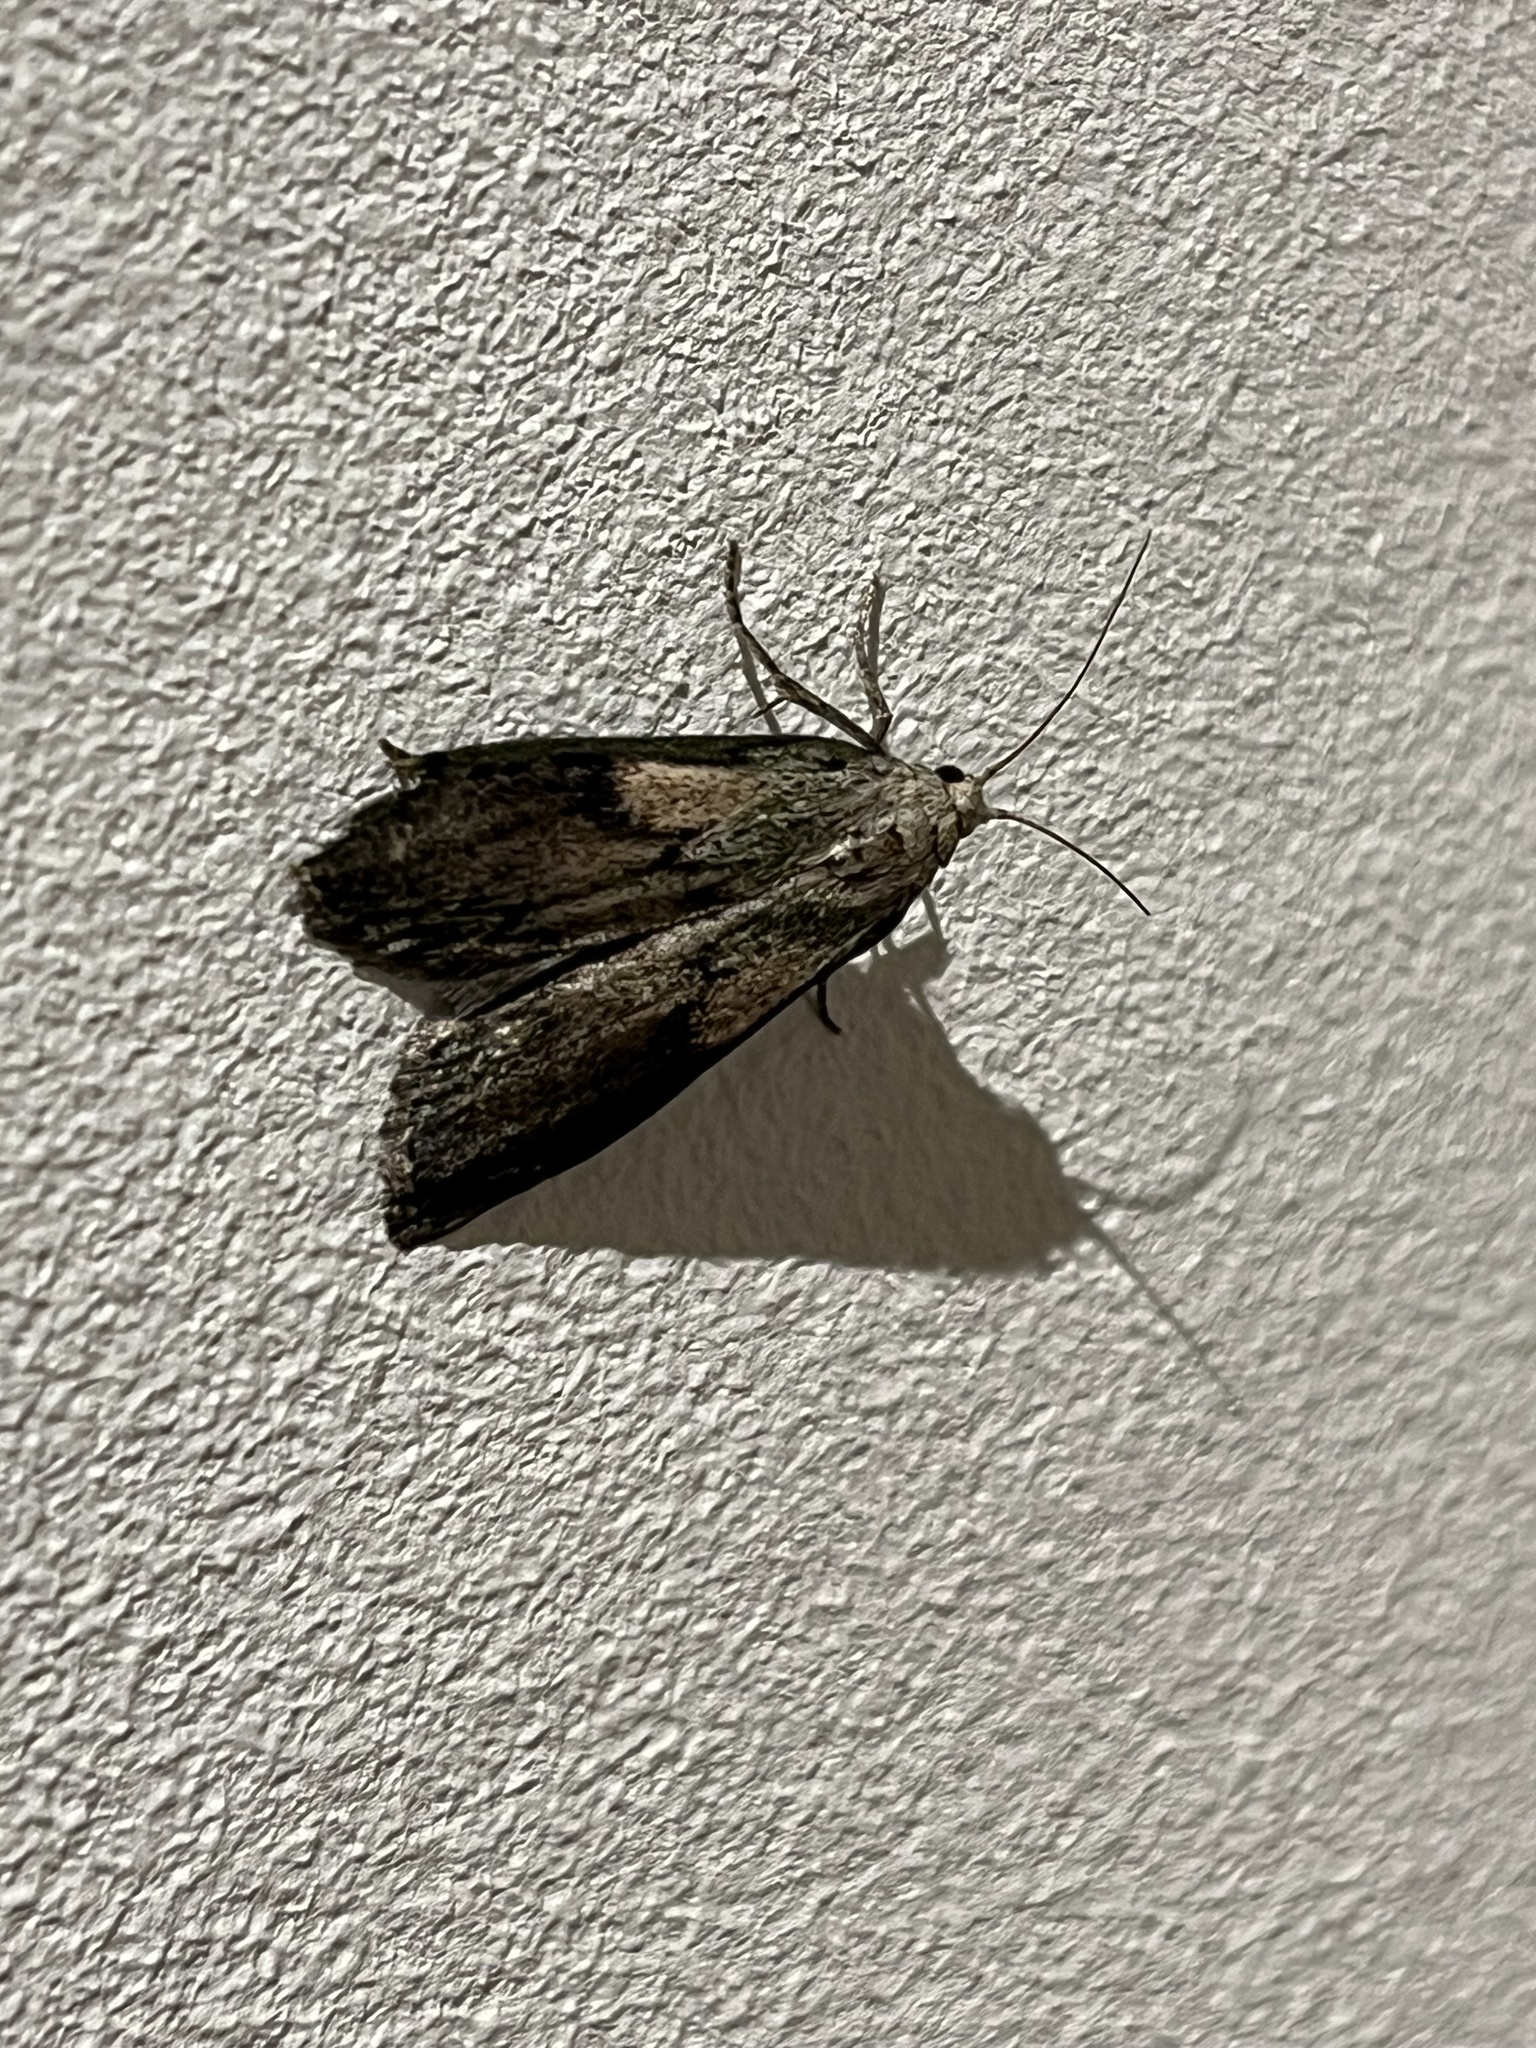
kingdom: Animalia
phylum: Arthropoda
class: Insecta
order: Lepidoptera
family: Pyralidae
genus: Aphomia
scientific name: Aphomia sociella
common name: Bee moth
